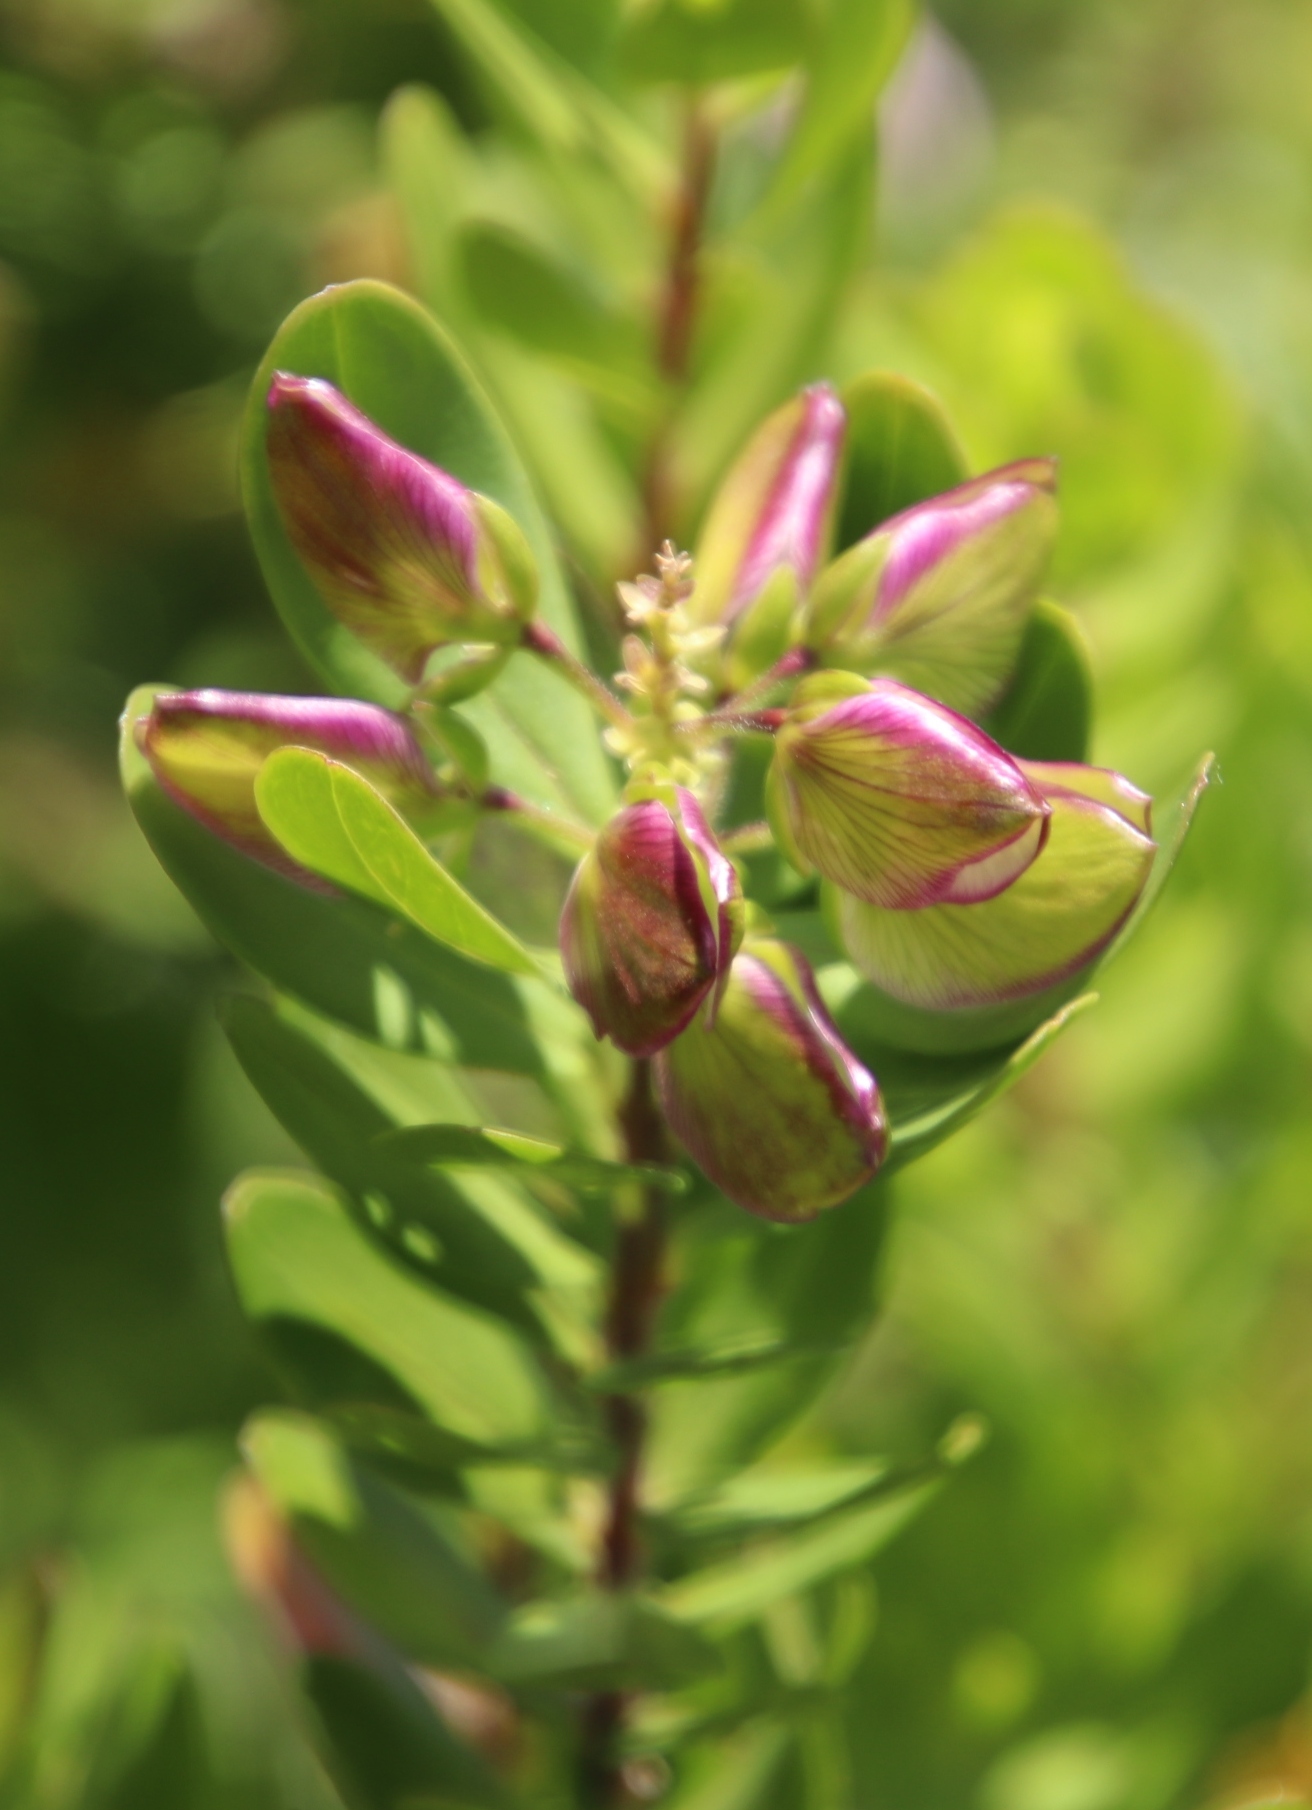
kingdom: Plantae
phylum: Tracheophyta
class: Magnoliopsida
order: Fabales
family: Polygalaceae
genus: Polygala
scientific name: Polygala myrtifolia
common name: Myrtle-leaf milkwort
